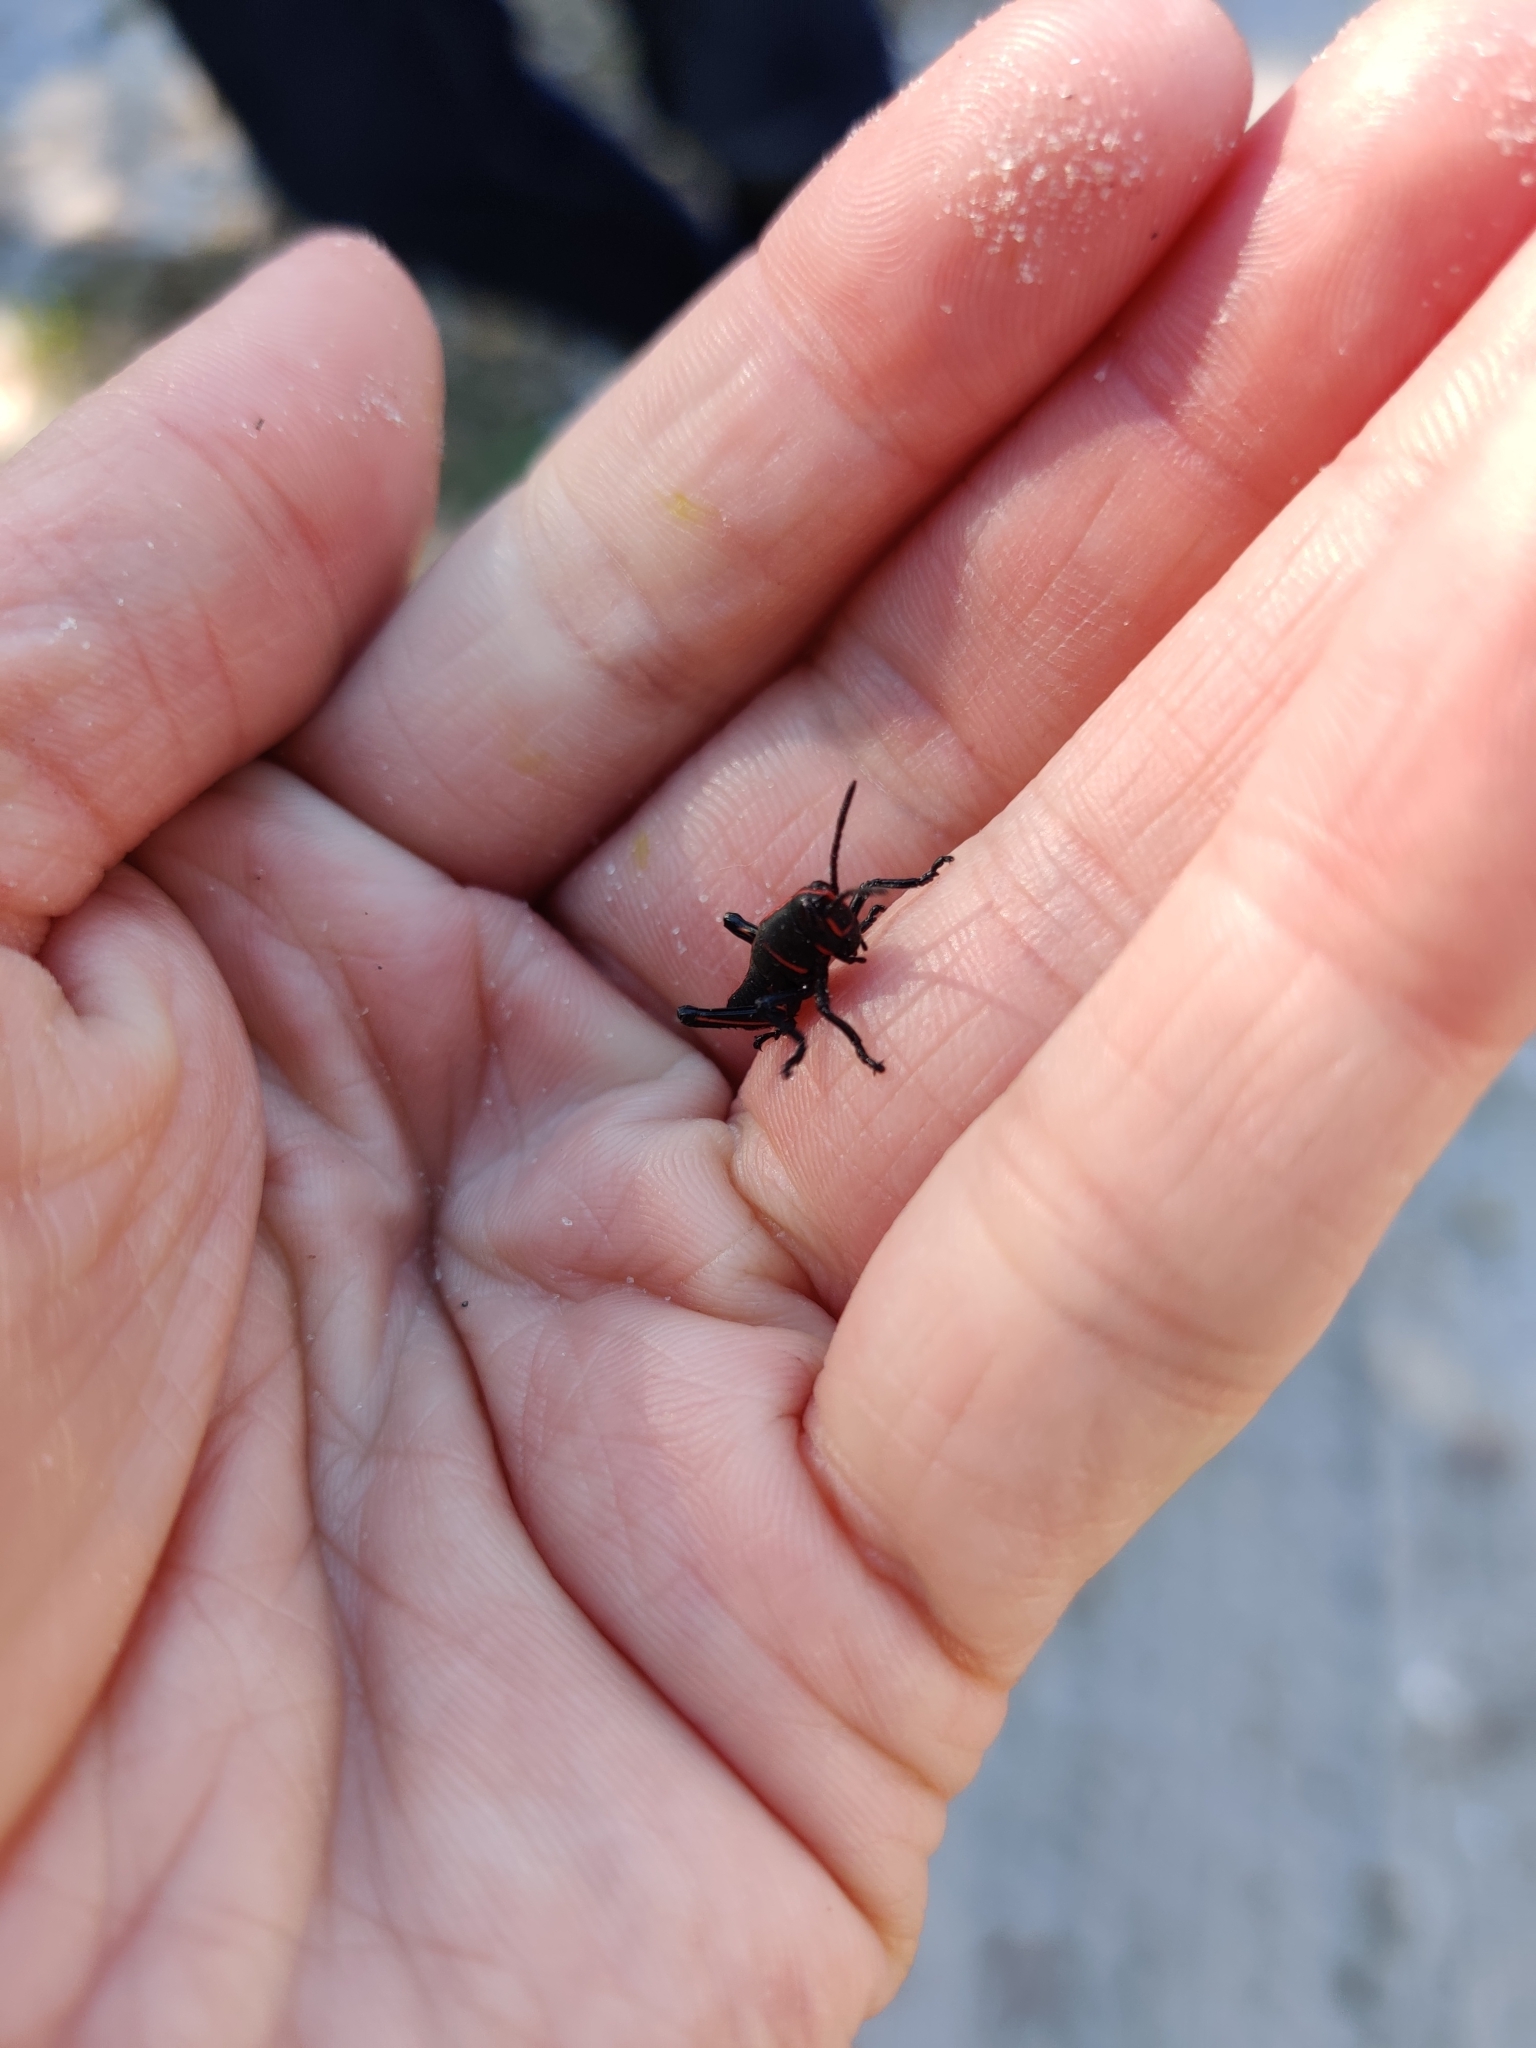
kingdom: Animalia
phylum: Arthropoda
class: Insecta
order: Orthoptera
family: Romaleidae
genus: Romalea
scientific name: Romalea microptera
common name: Eastern lubber grasshopper
